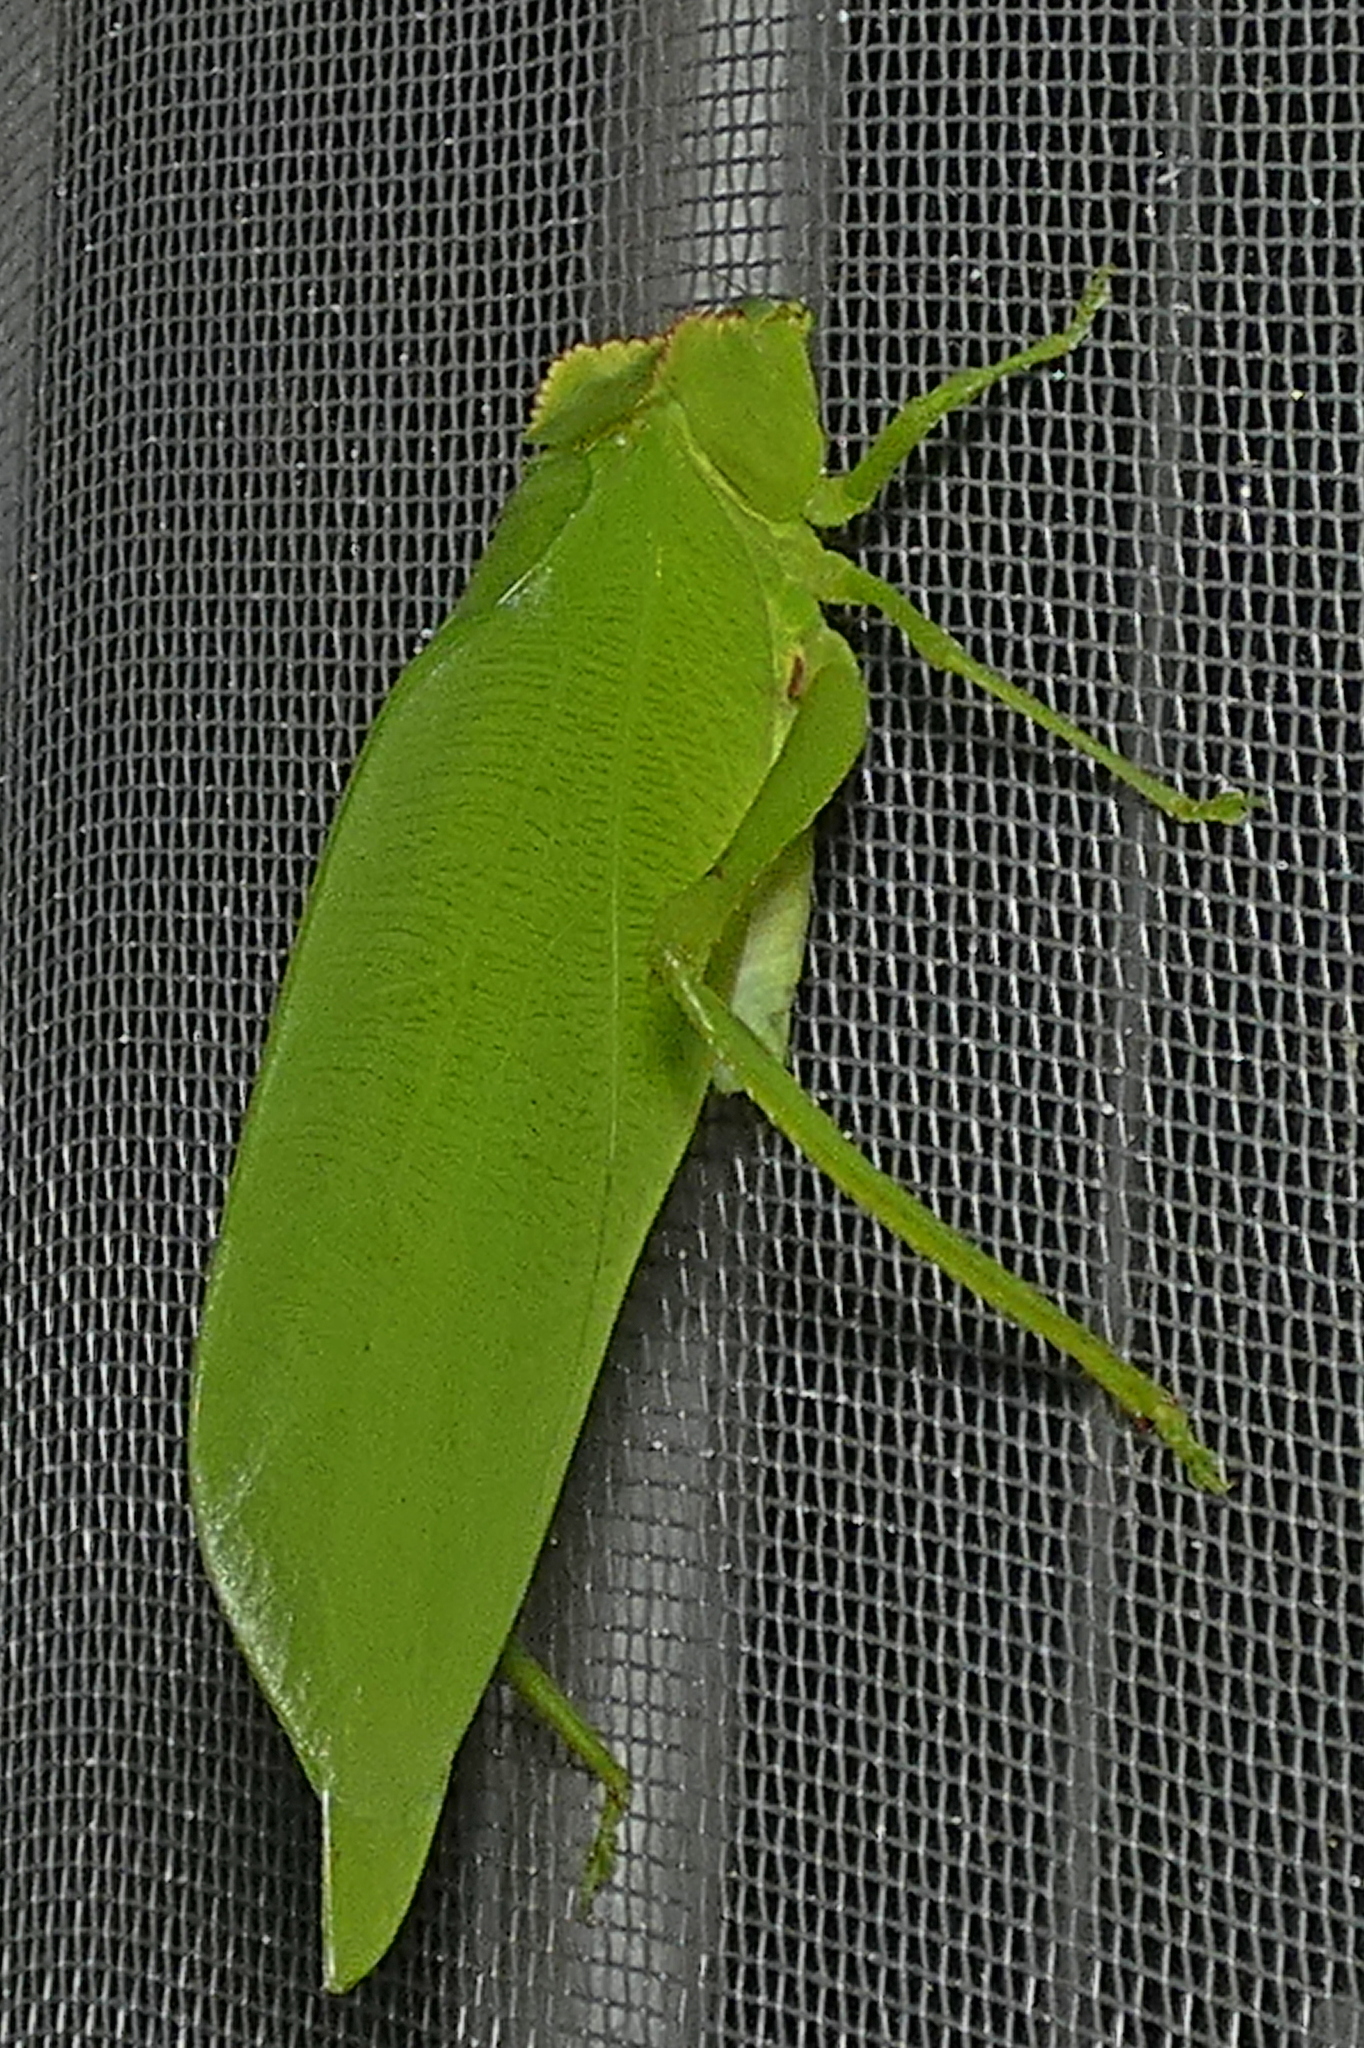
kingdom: Animalia
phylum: Arthropoda
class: Insecta
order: Orthoptera
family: Tettigoniidae
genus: Cnemidophyllum
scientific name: Cnemidophyllum citrifolium
